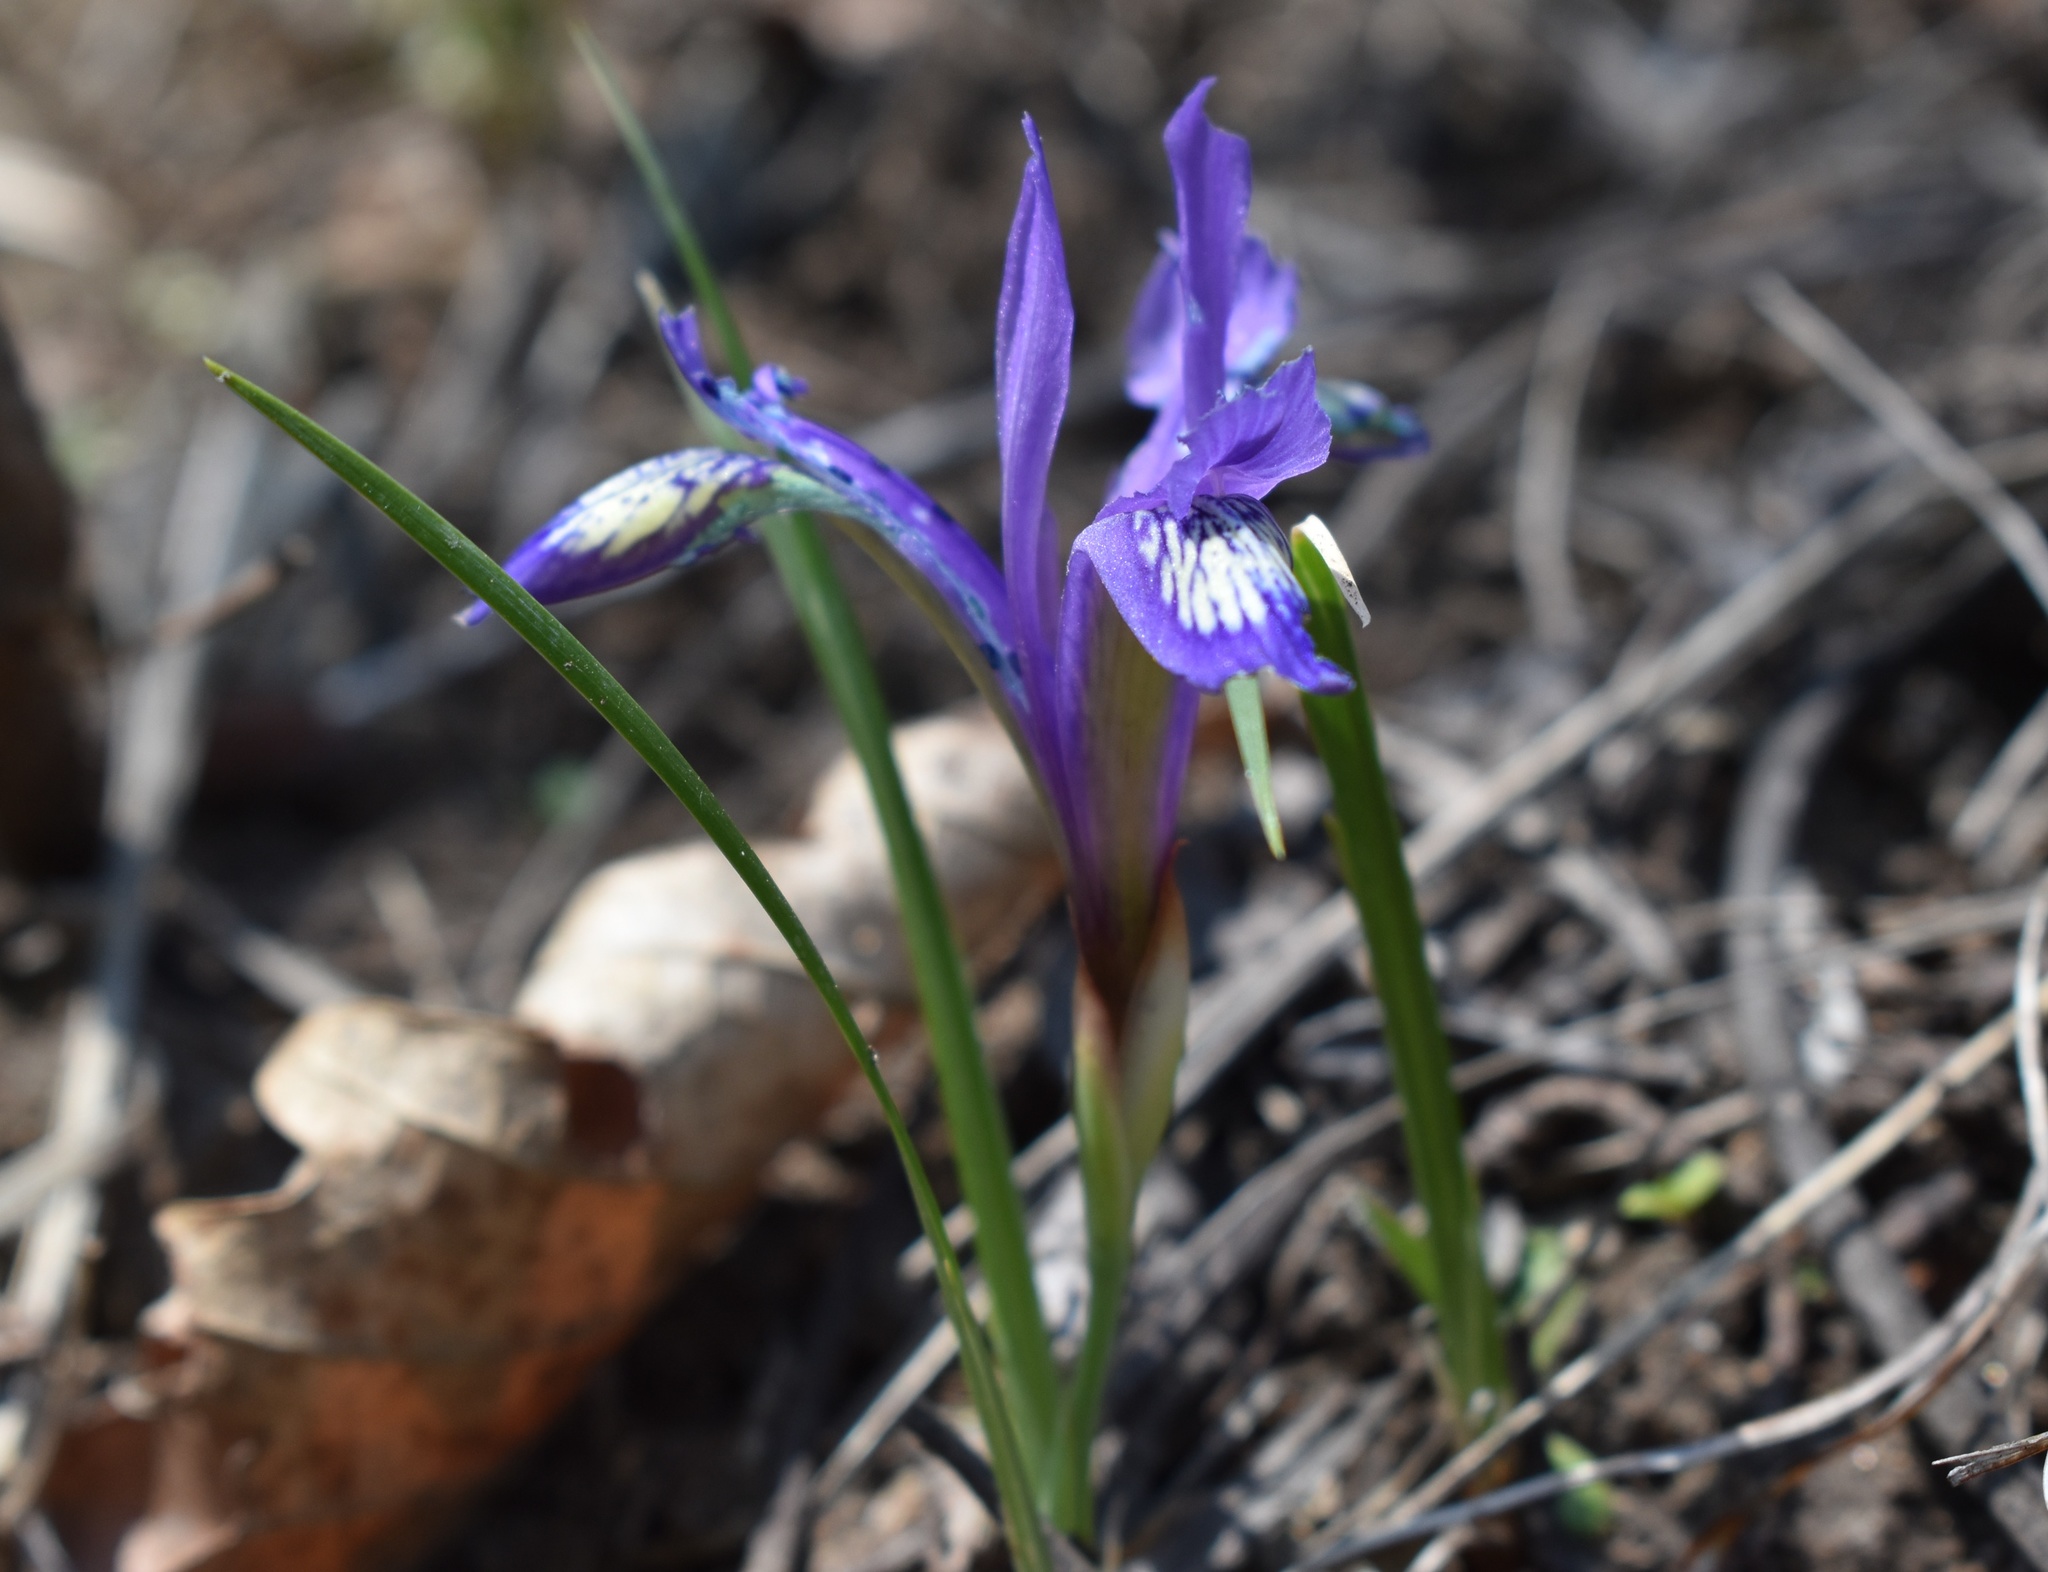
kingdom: Plantae
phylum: Tracheophyta
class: Liliopsida
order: Asparagales
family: Iridaceae
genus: Iris
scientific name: Iris uniflora
